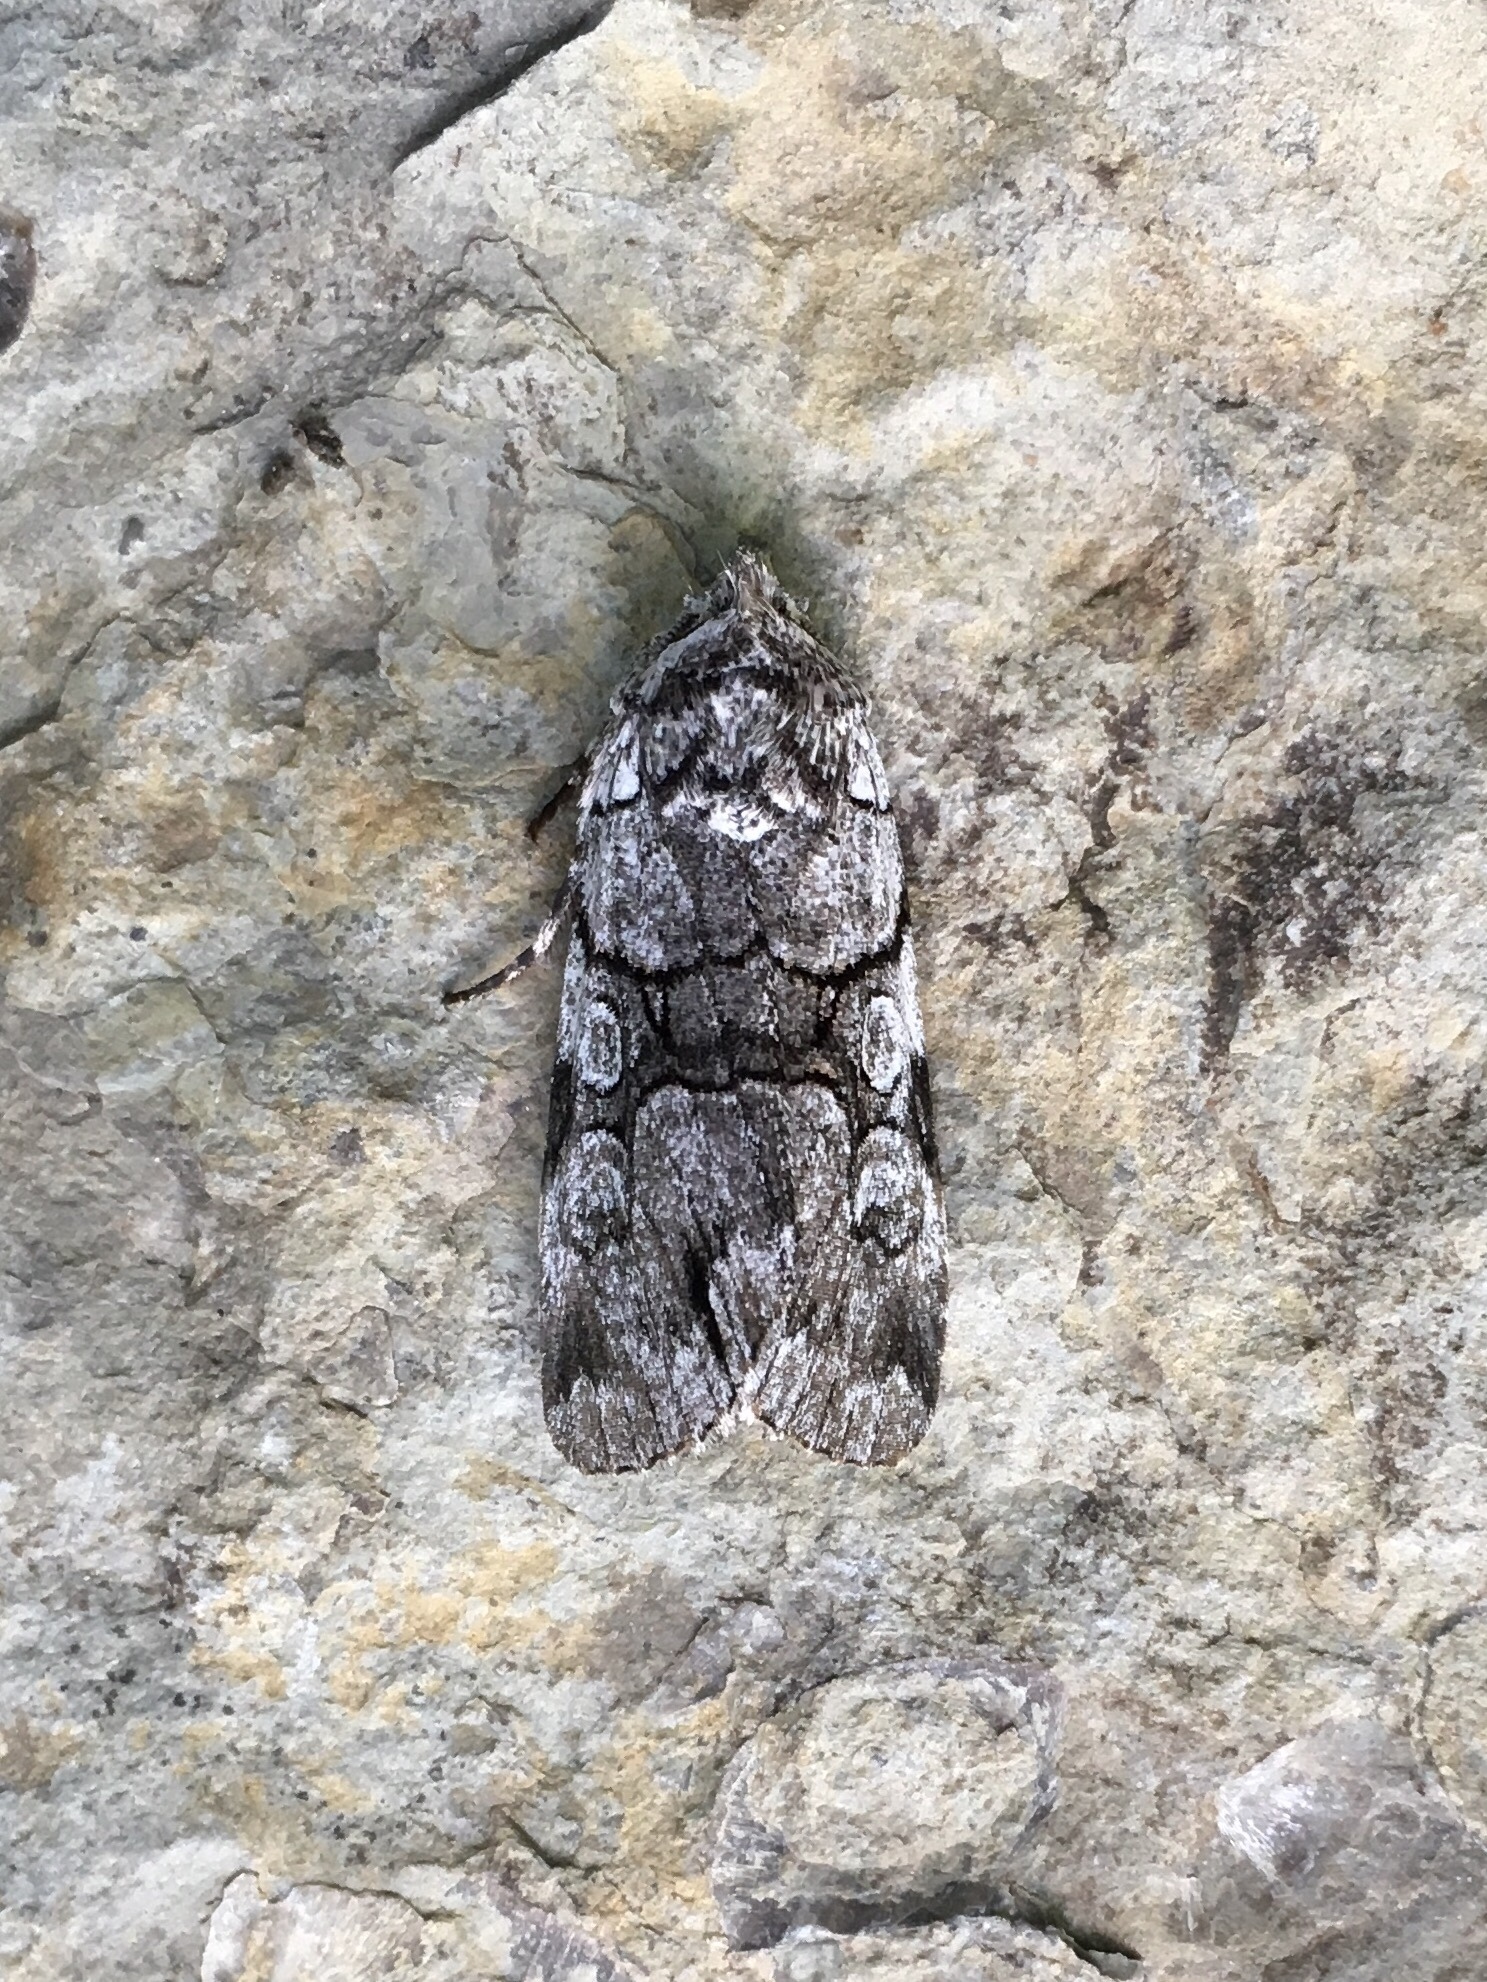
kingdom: Animalia
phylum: Arthropoda
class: Insecta
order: Lepidoptera
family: Noctuidae
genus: Sympistis
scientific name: Sympistis chionanthi
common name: Fringe-tree sallow
